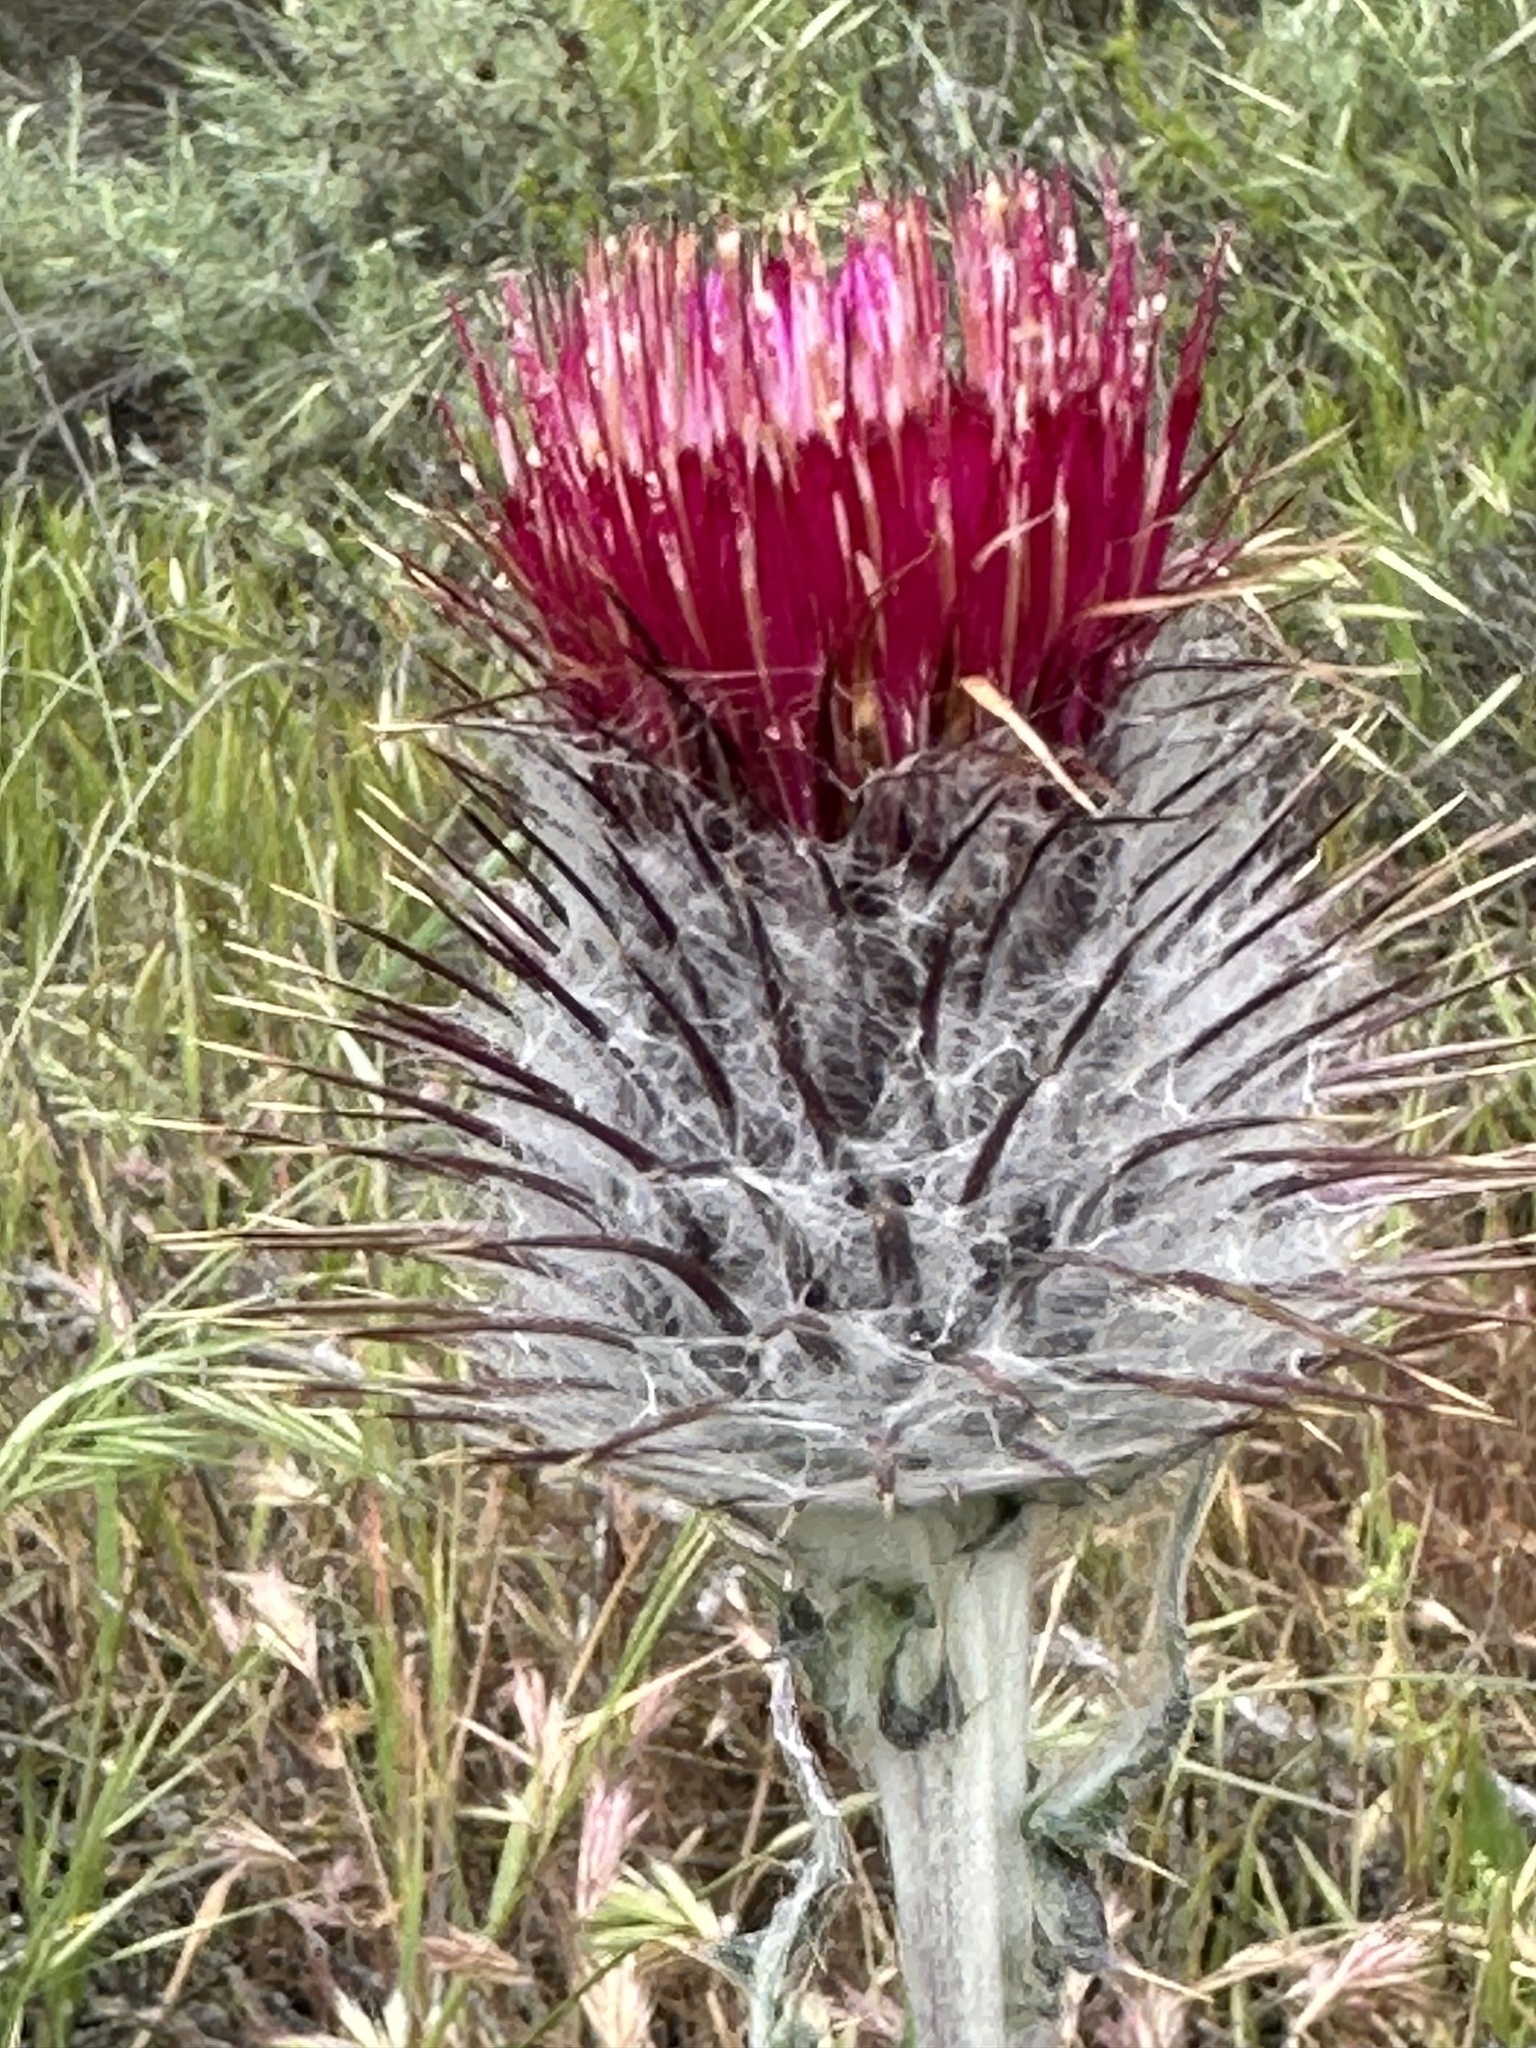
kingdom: Plantae
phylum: Tracheophyta
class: Magnoliopsida
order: Asterales
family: Asteraceae
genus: Cirsium
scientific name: Cirsium occidentale
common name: Western thistle
